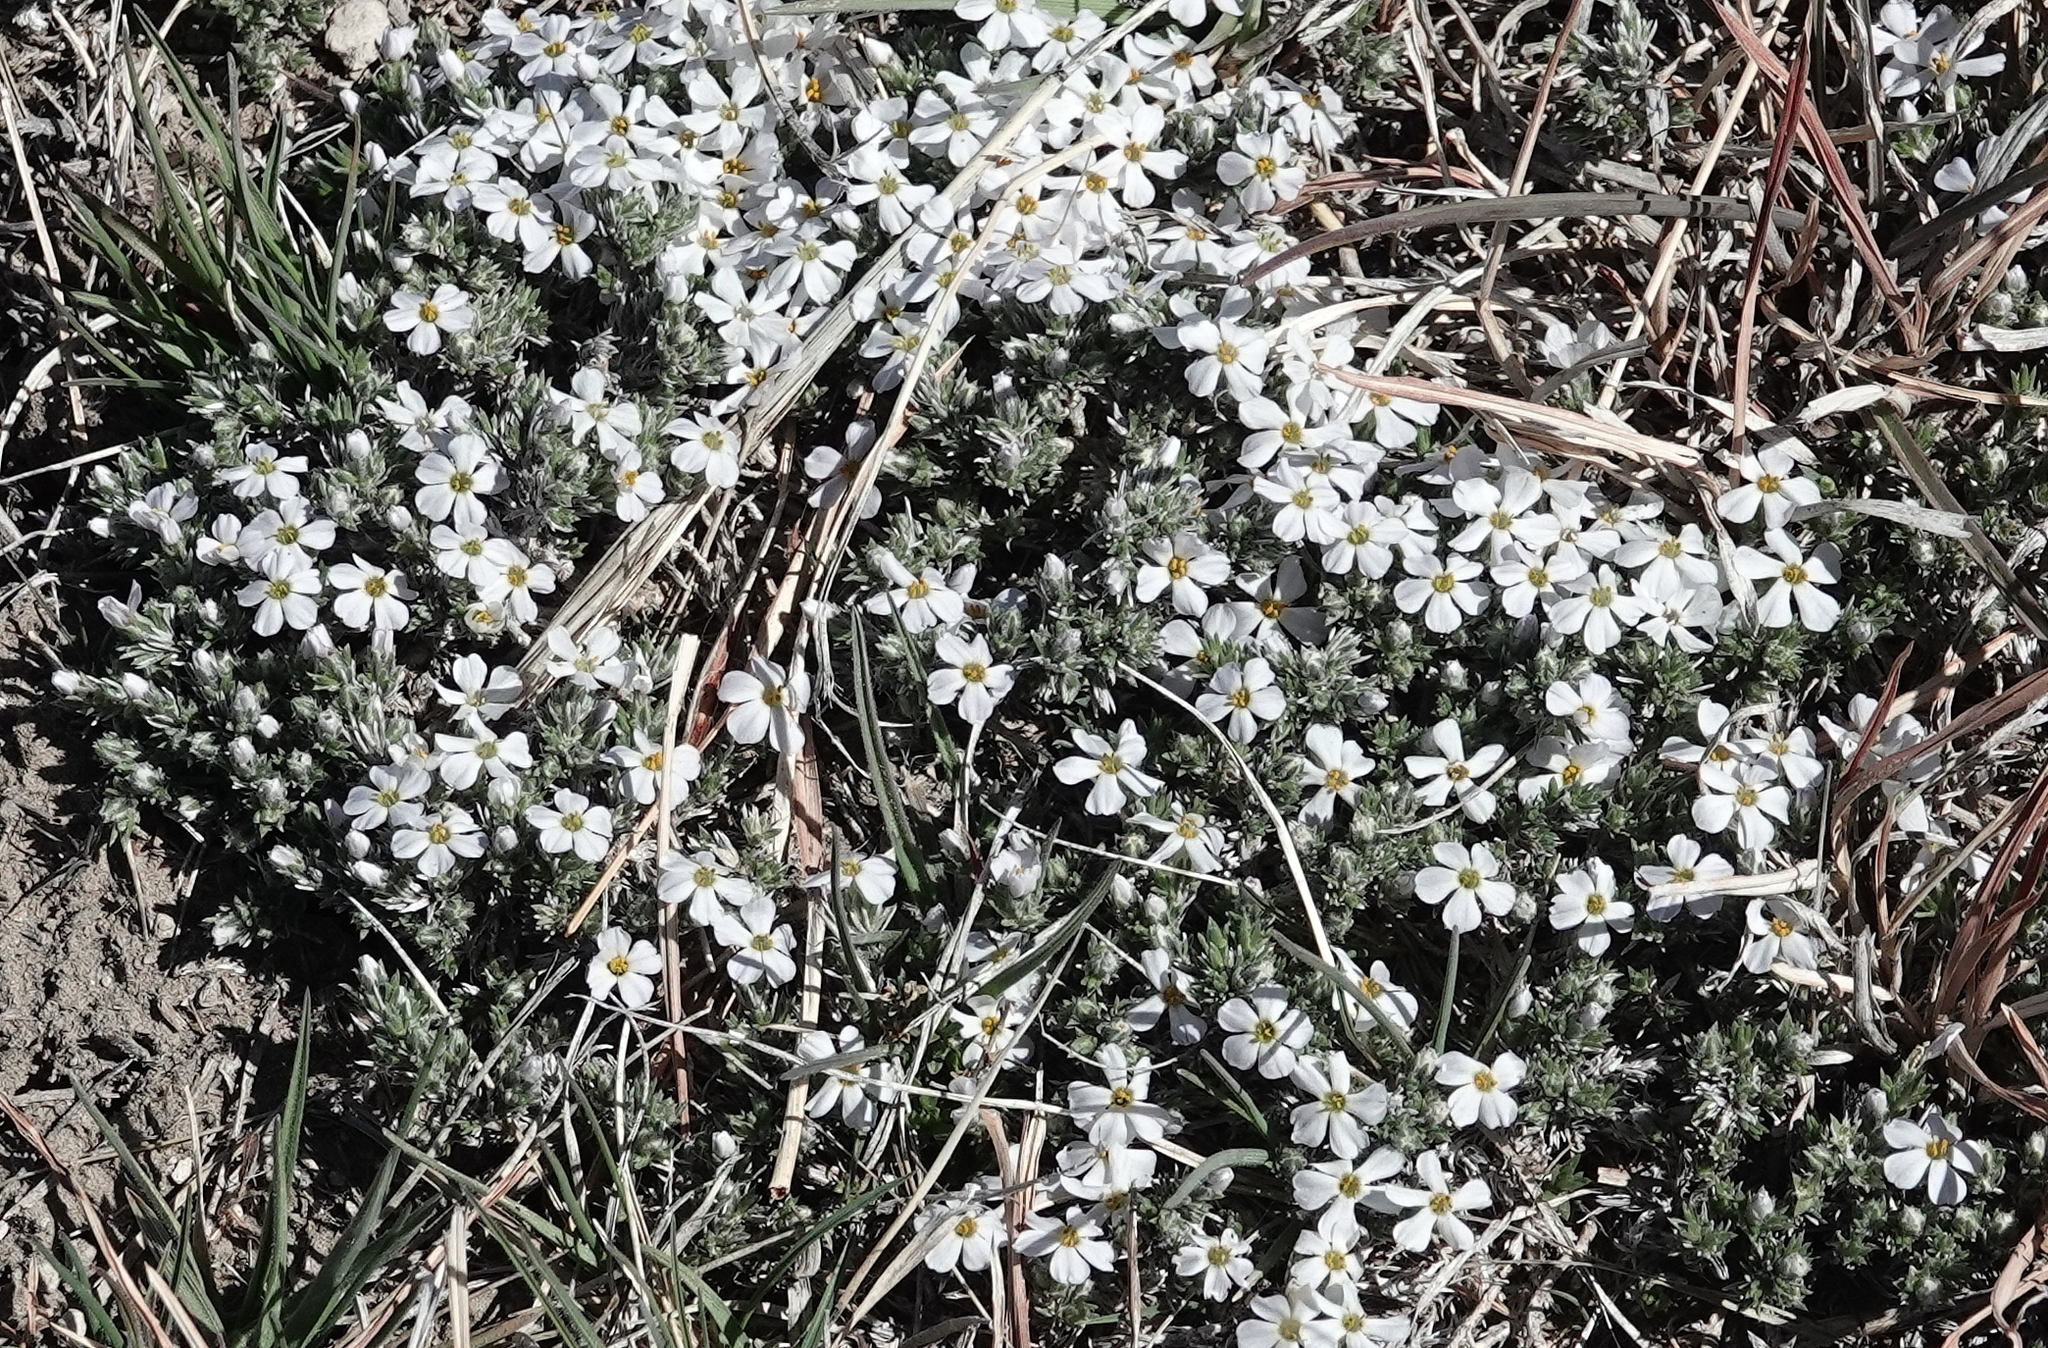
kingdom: Plantae
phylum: Tracheophyta
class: Magnoliopsida
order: Ericales
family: Polemoniaceae
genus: Phlox
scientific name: Phlox hoodii
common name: Moss phlox
